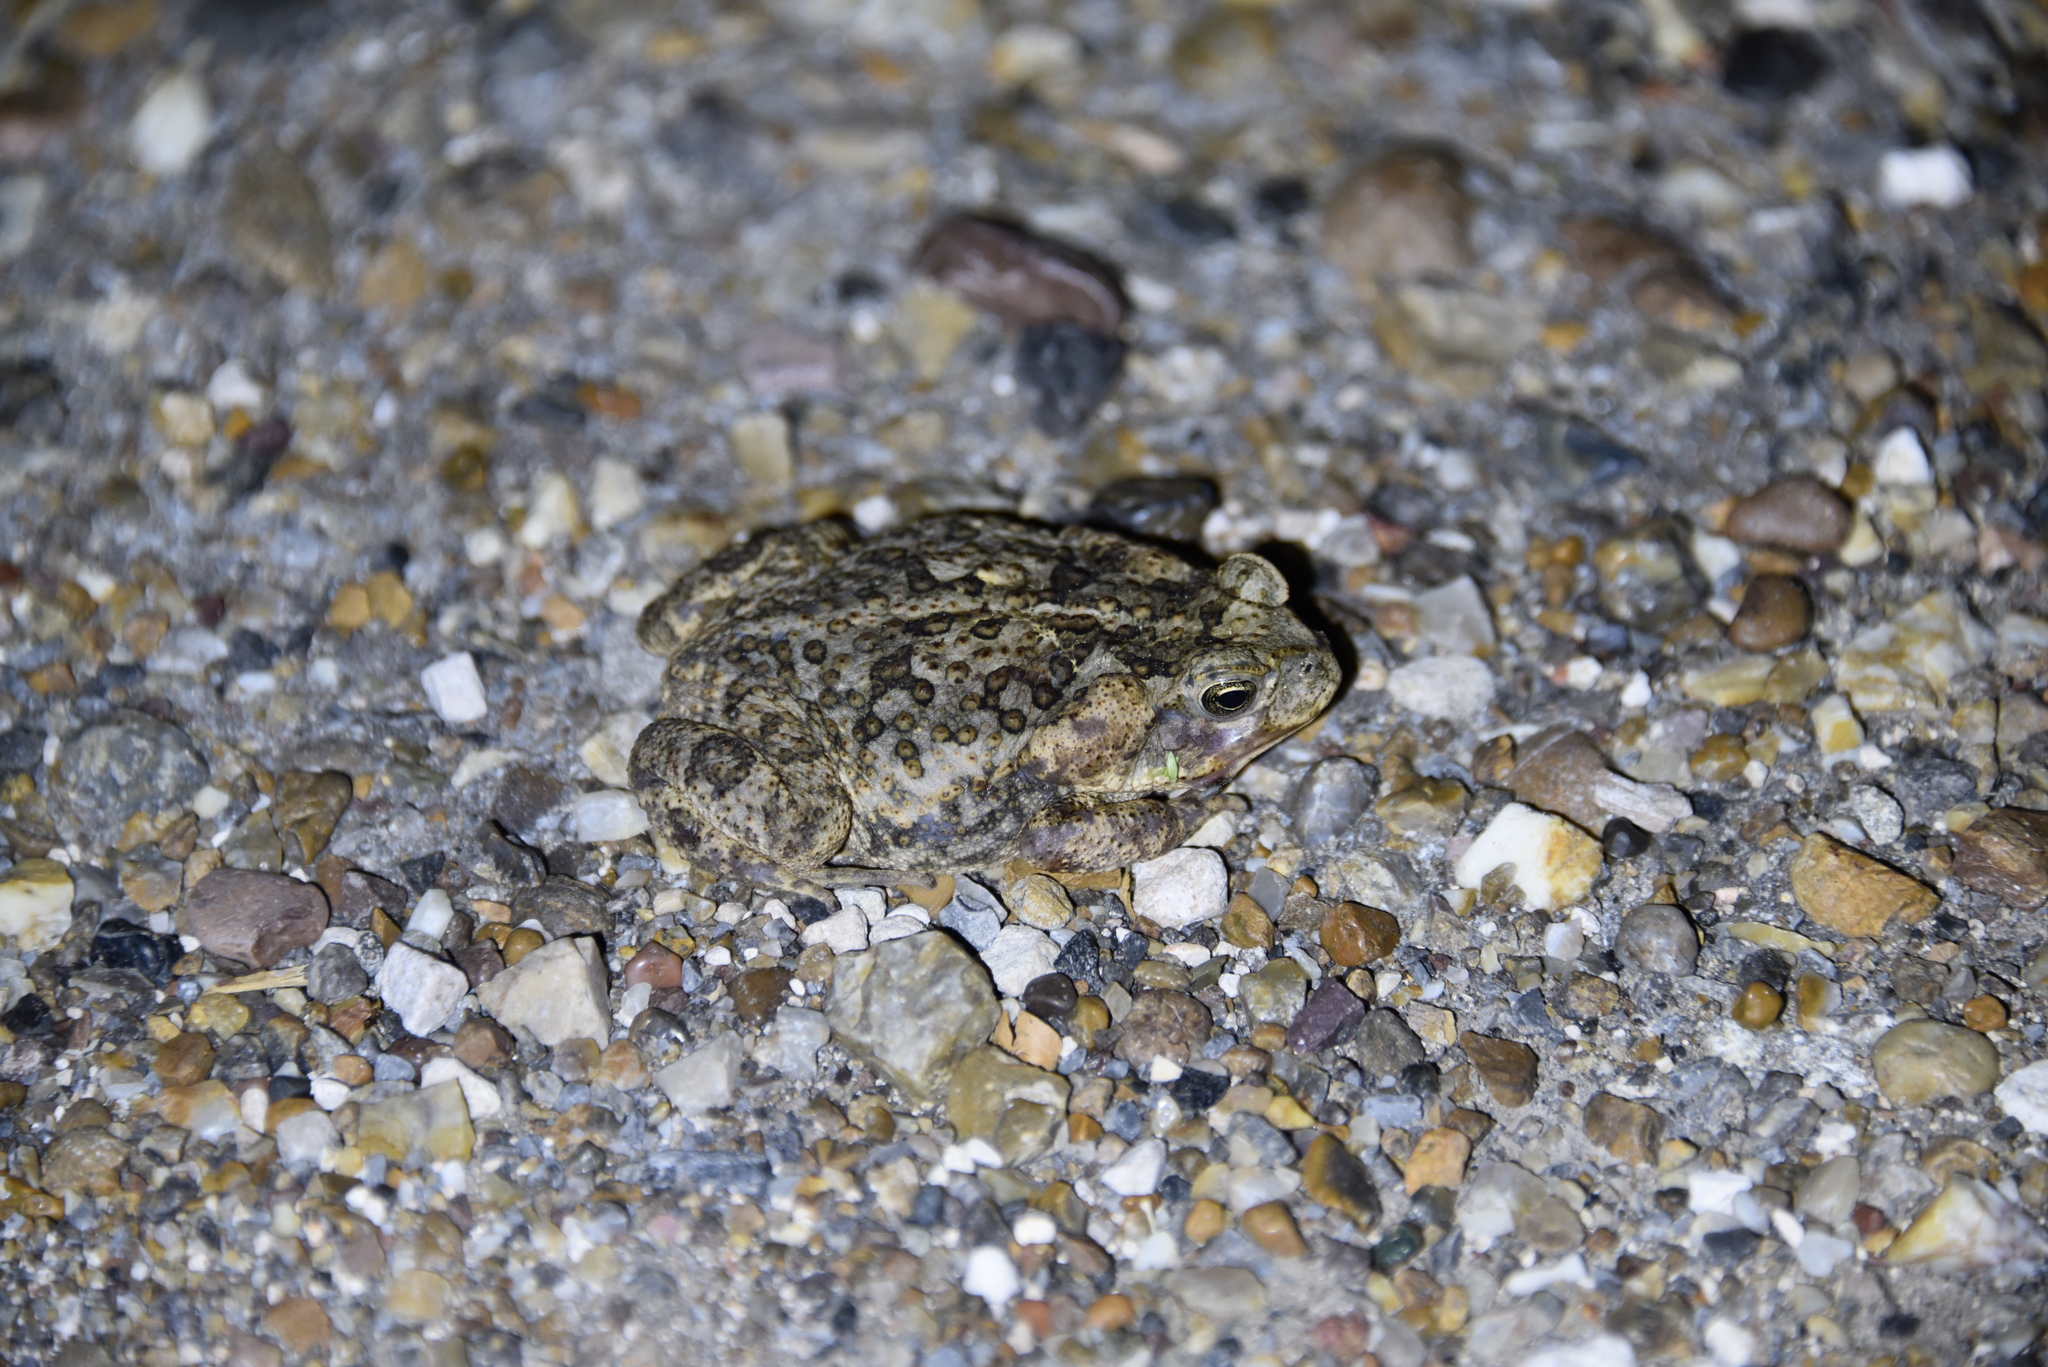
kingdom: Animalia
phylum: Chordata
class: Amphibia
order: Anura
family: Bufonidae
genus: Rhinella
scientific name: Rhinella horribilis
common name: Mesoamerican cane toad
